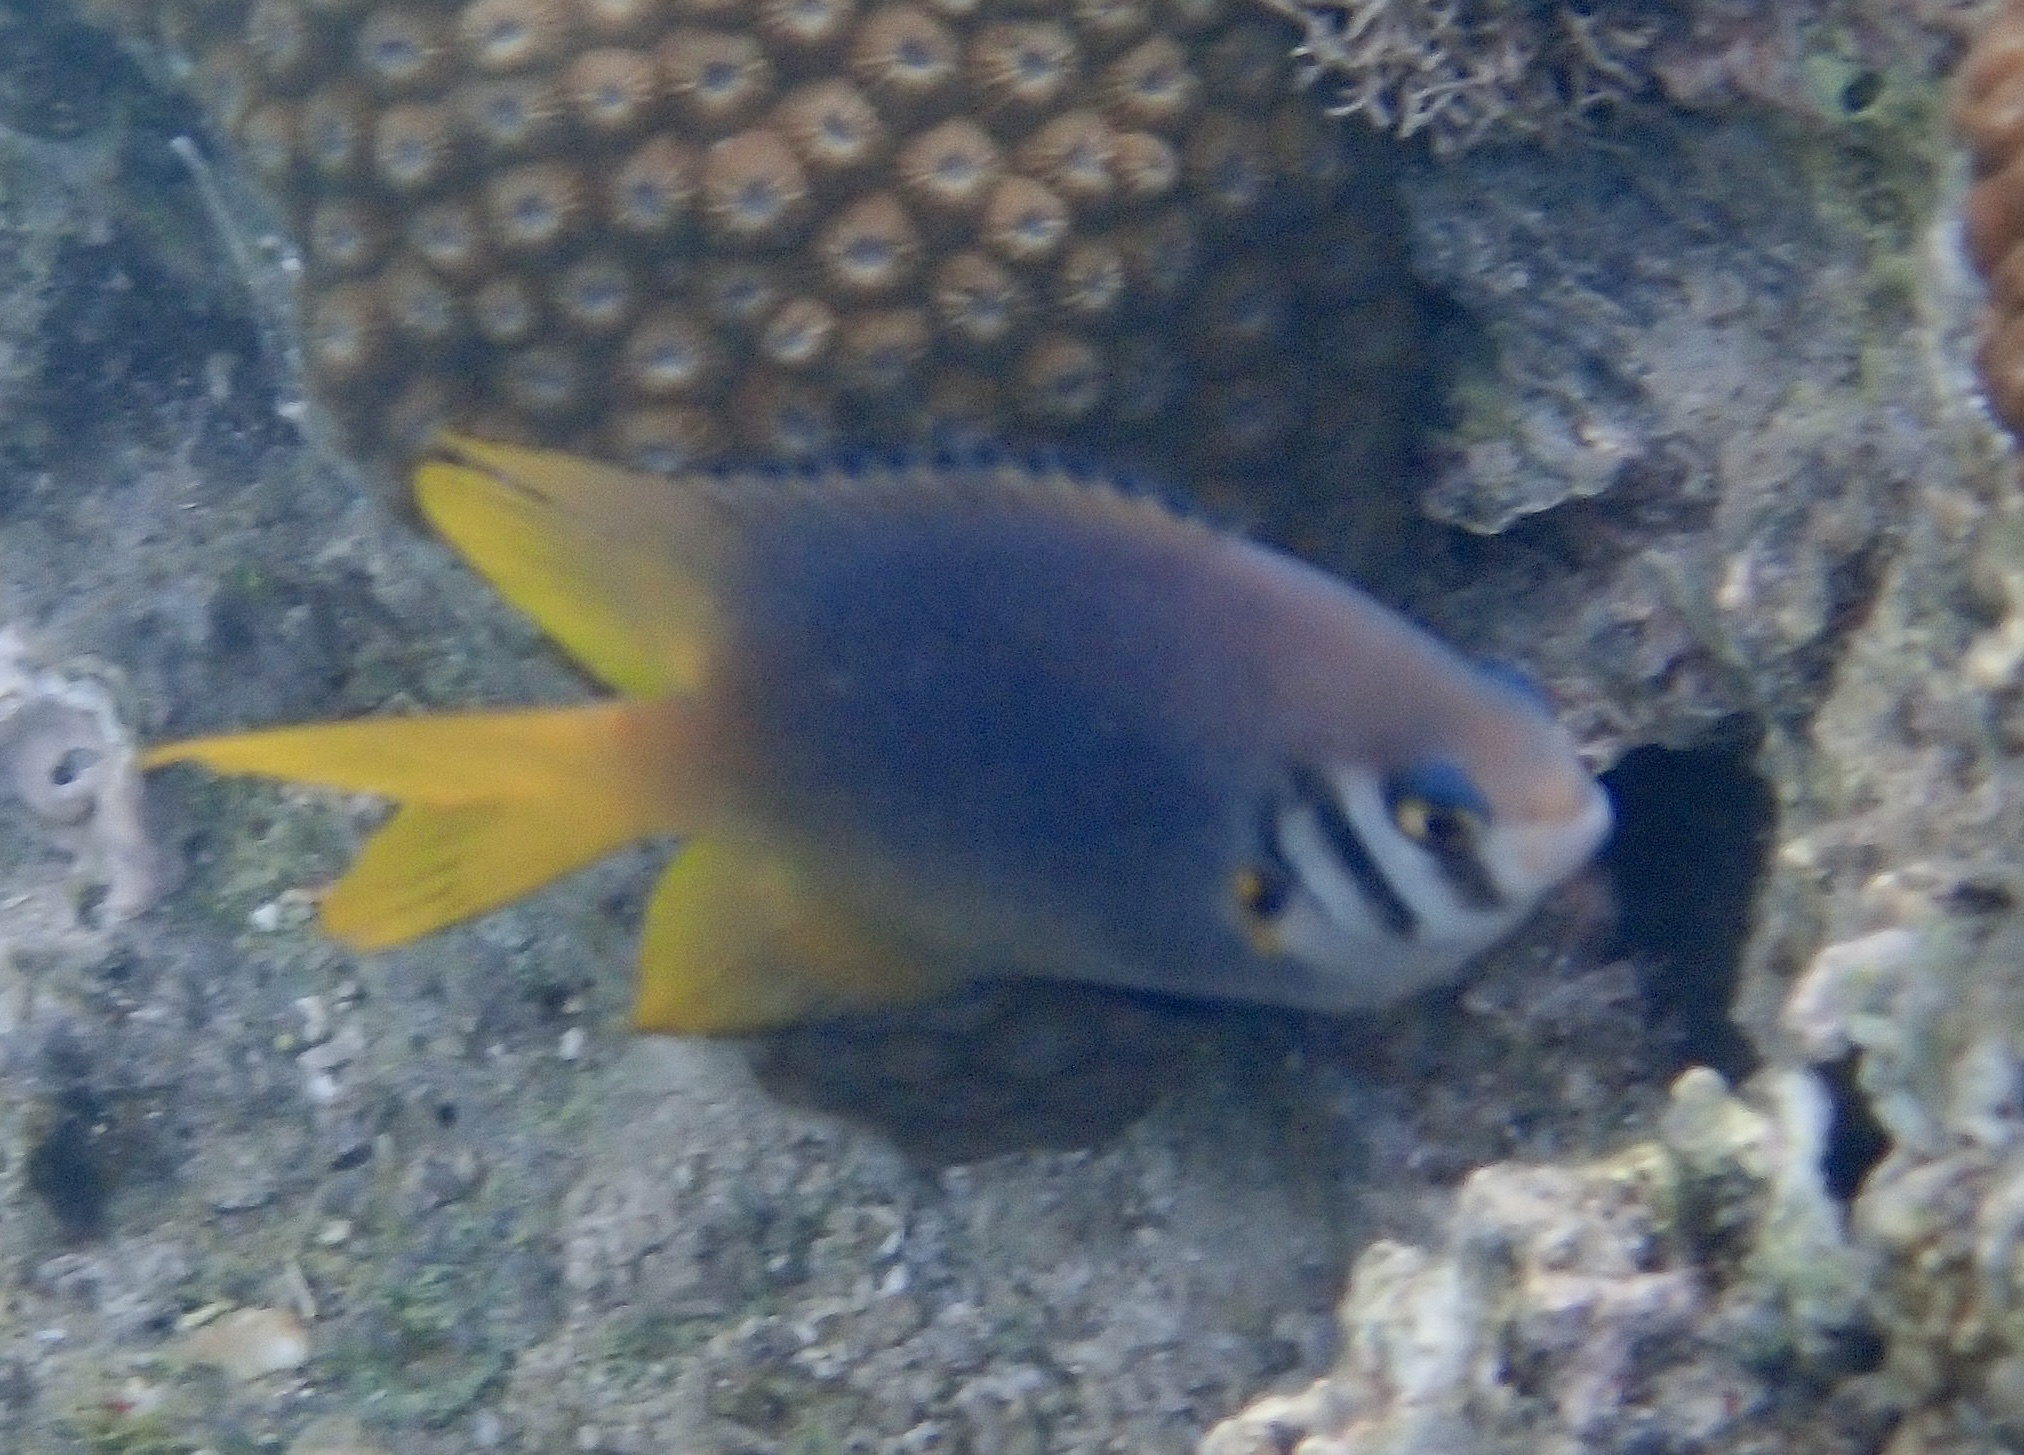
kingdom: Animalia
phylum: Chordata
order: Perciformes
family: Pomacentridae
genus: Neoglyphidodon
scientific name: Neoglyphidodon nigroris
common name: Behn's damsel
